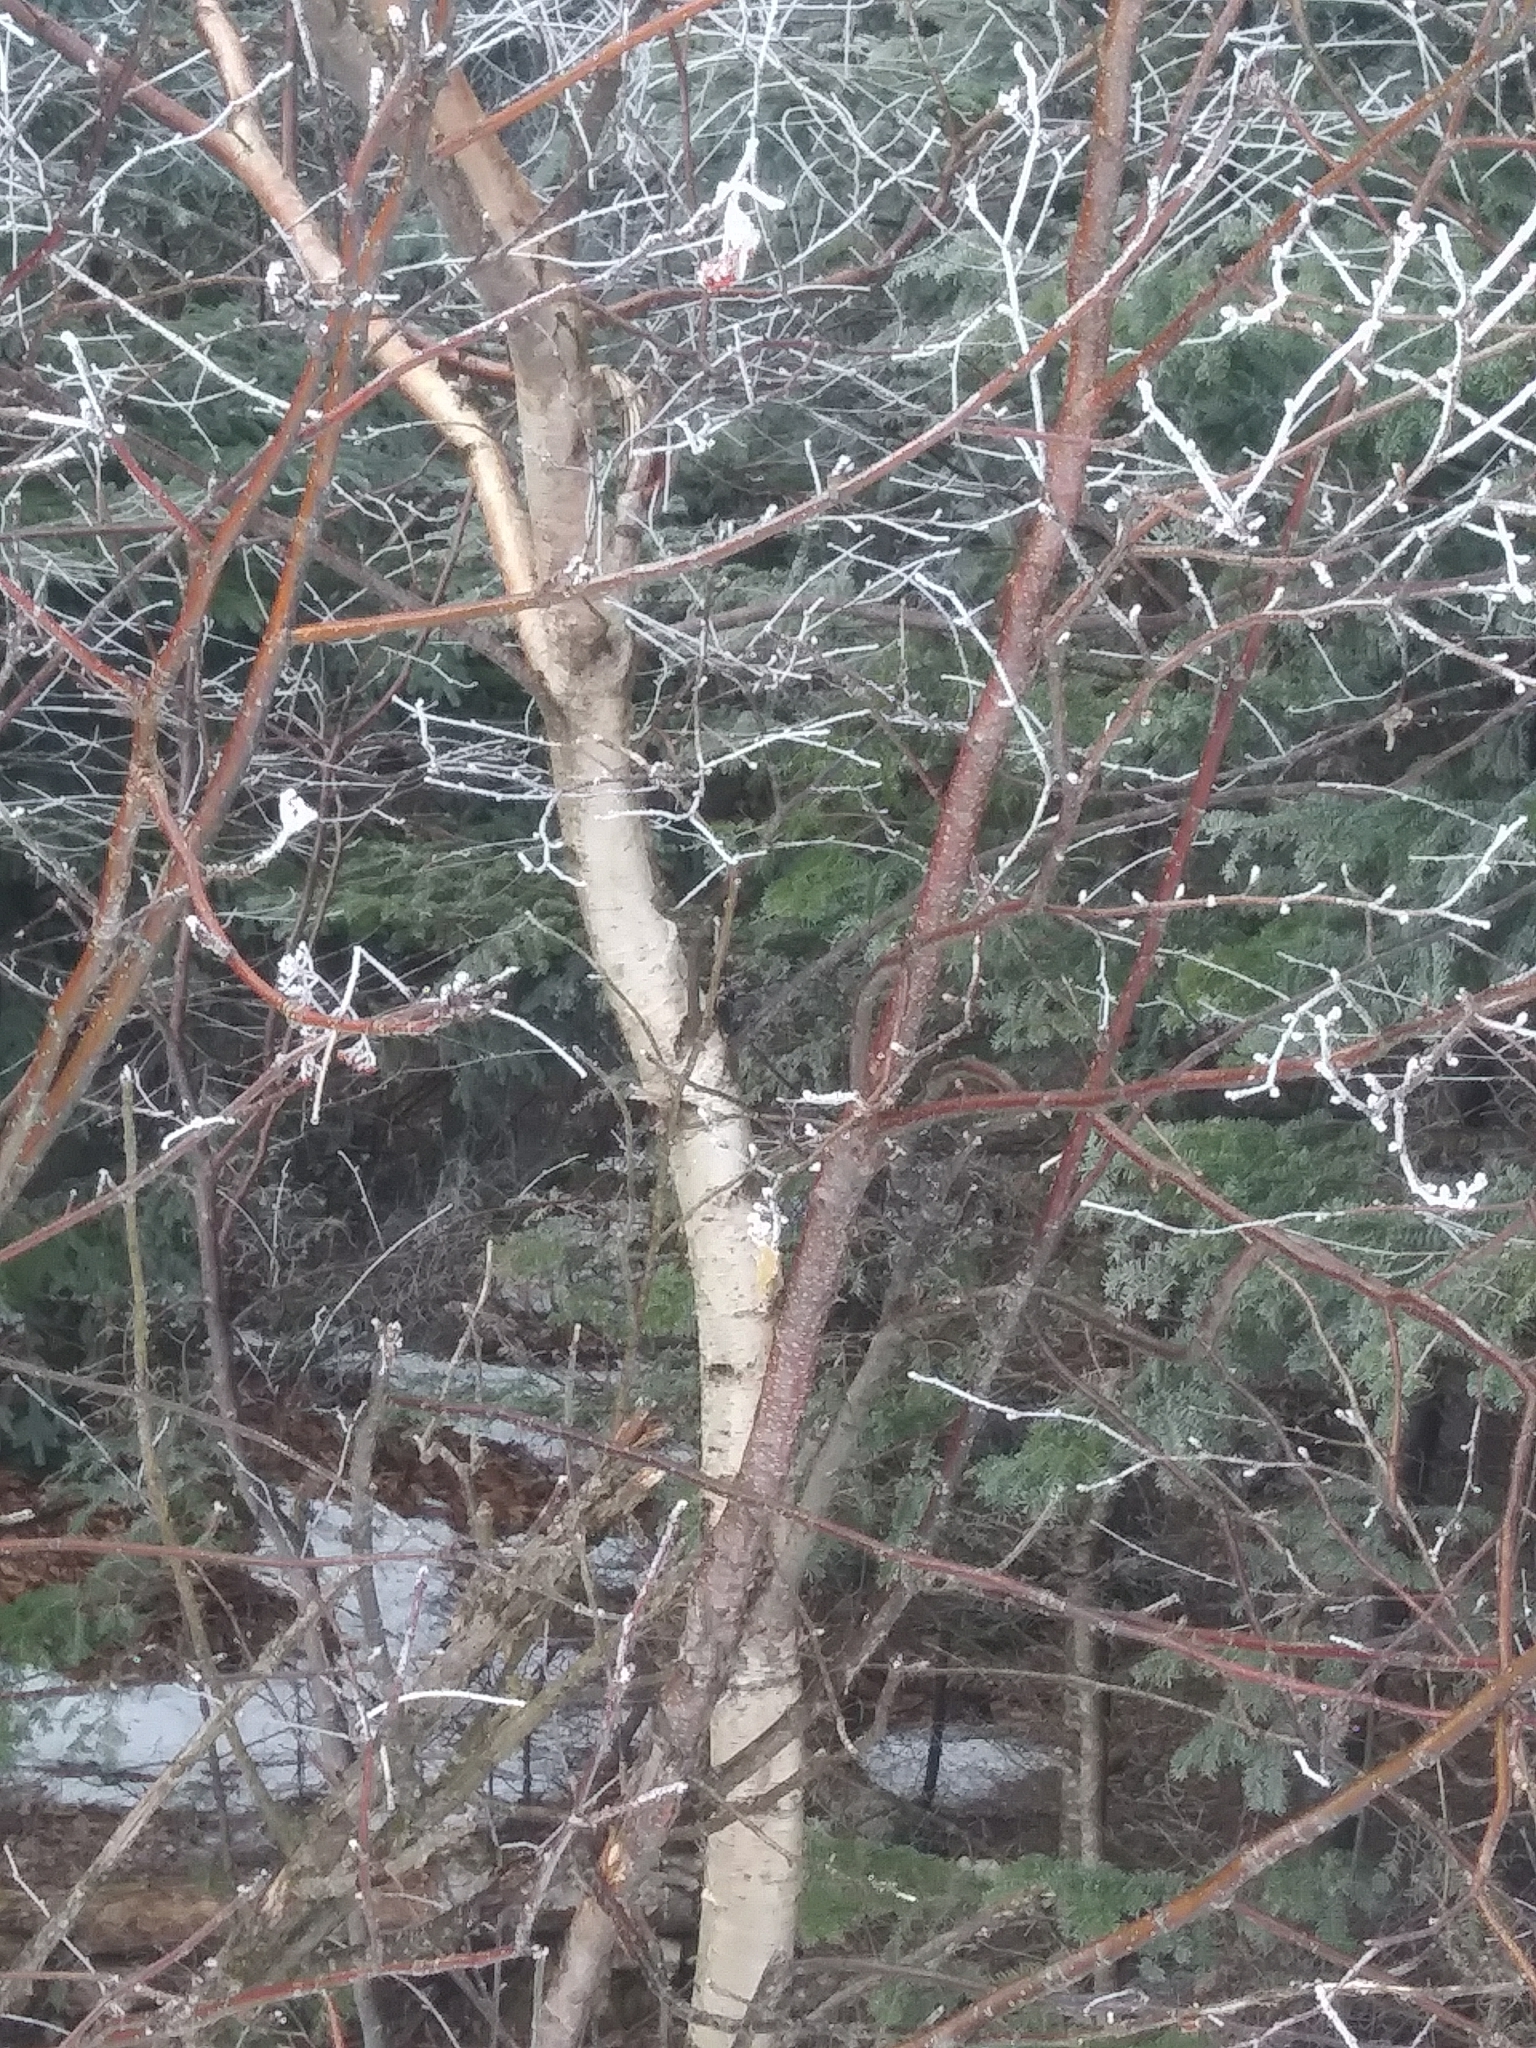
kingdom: Plantae
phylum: Tracheophyta
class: Magnoliopsida
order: Fagales
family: Betulaceae
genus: Betula
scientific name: Betula populifolia
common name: Fire birch
